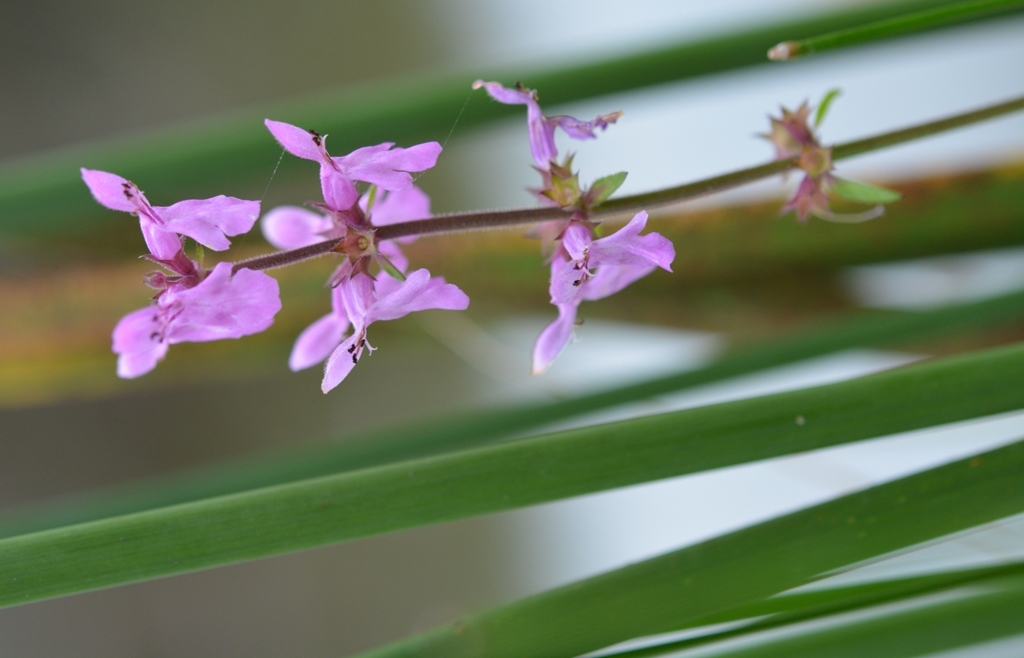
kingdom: Plantae
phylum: Tracheophyta
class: Magnoliopsida
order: Lamiales
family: Lamiaceae
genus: Stachys
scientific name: Stachys harleyana
